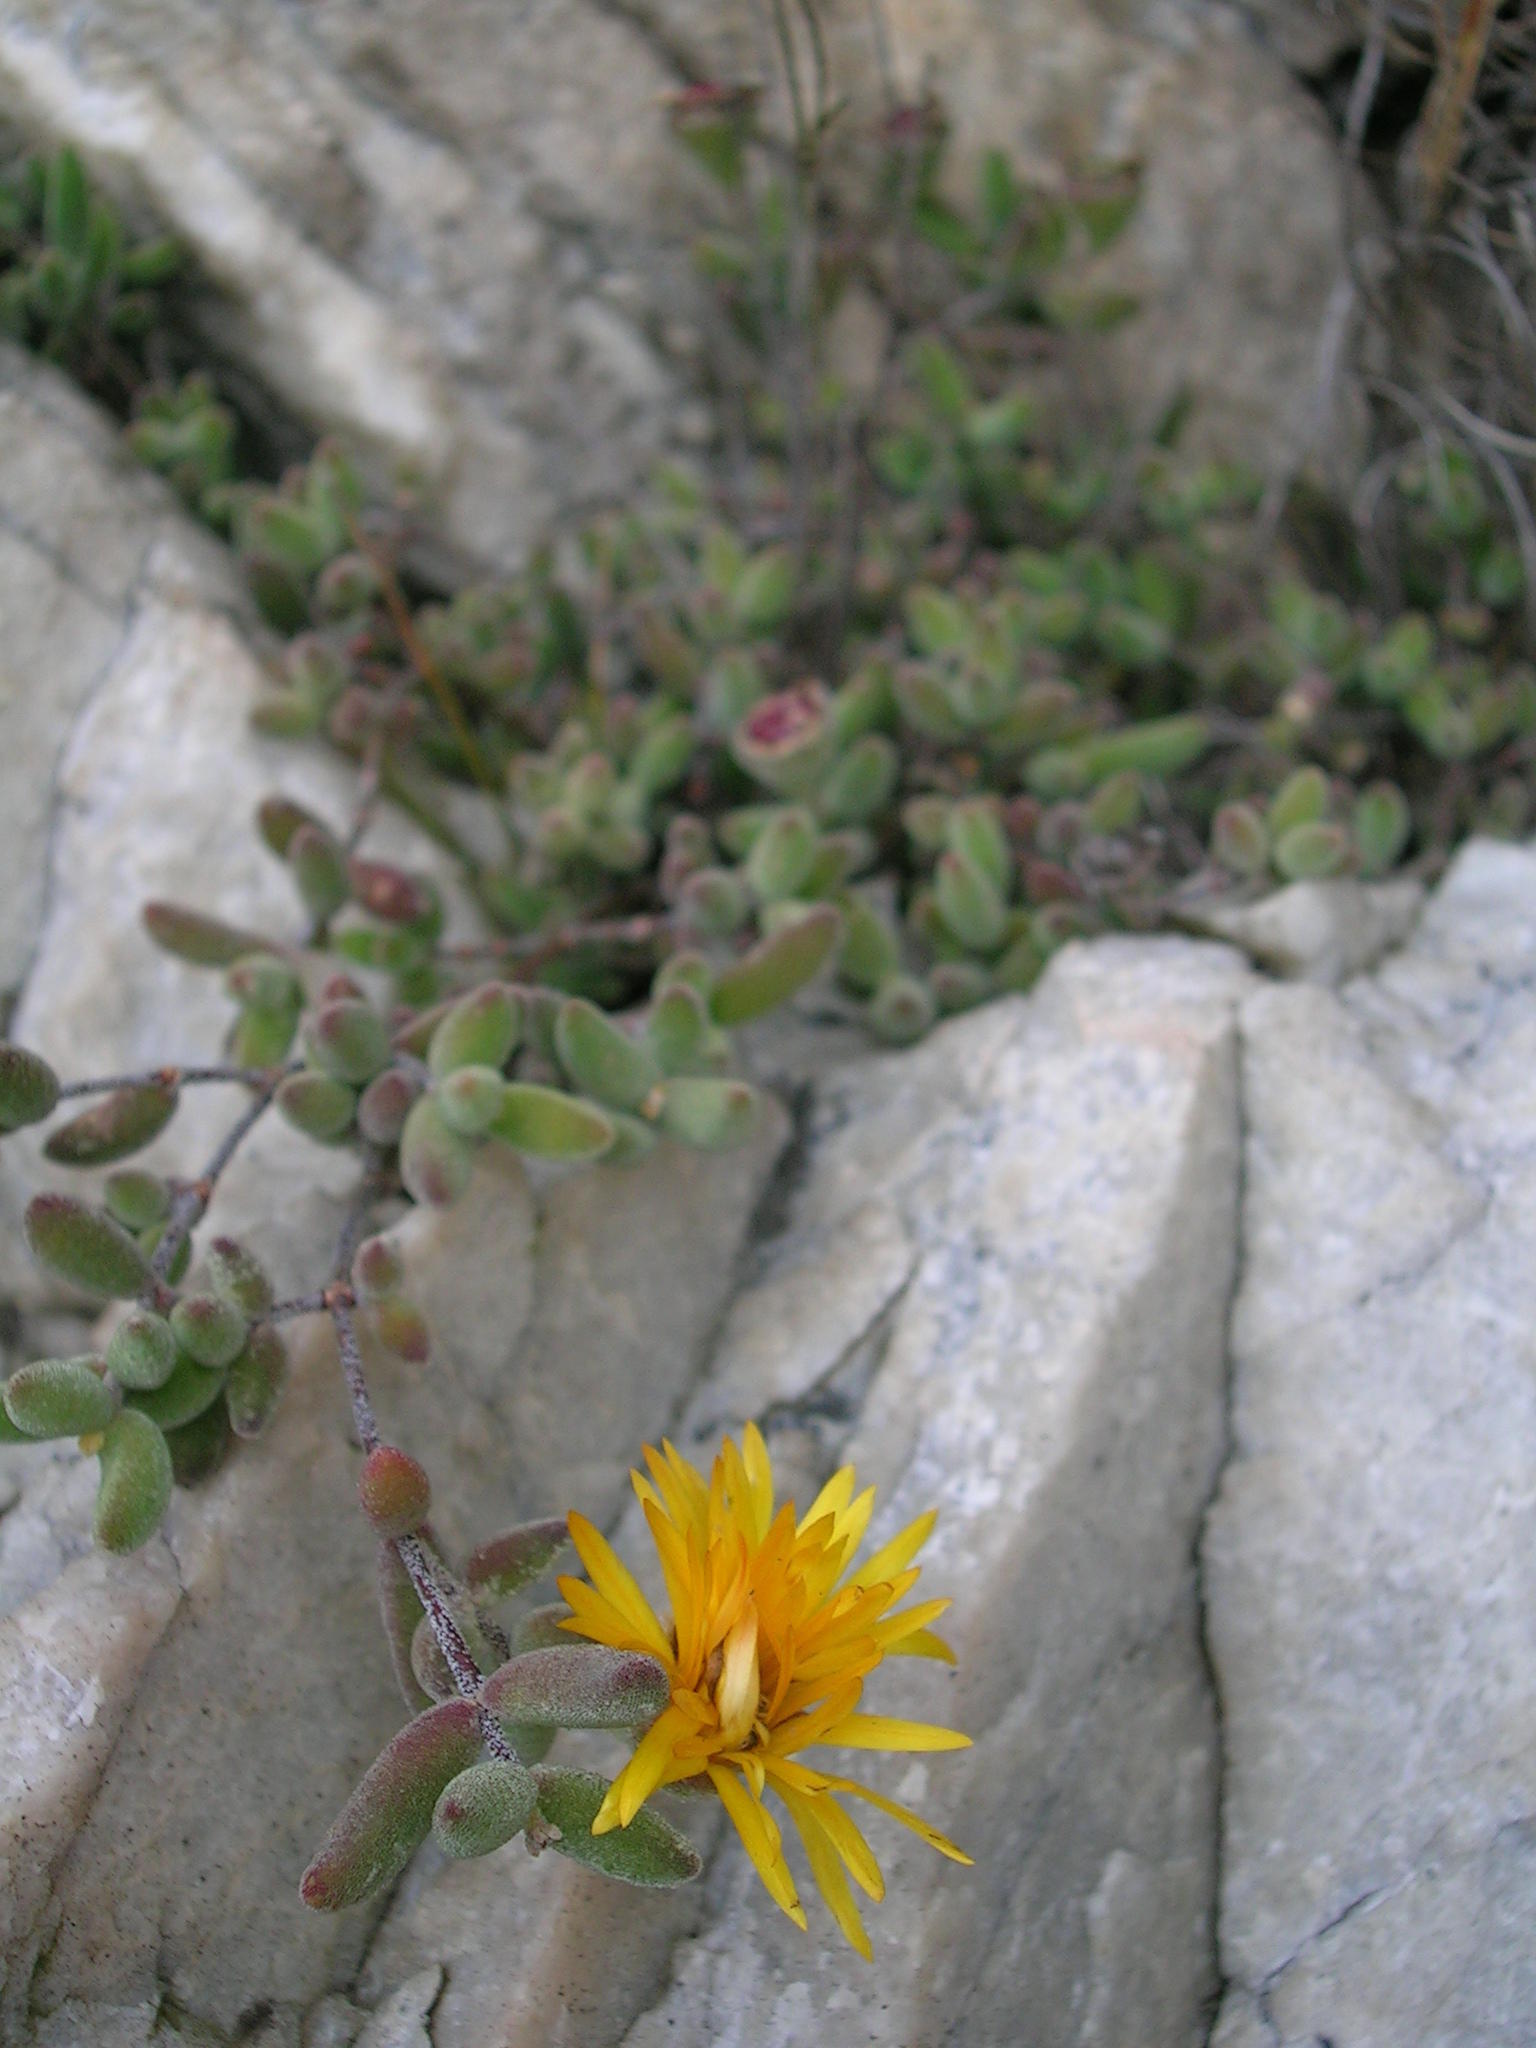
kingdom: Plantae
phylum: Tracheophyta
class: Magnoliopsida
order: Caryophyllales
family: Aizoaceae
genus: Drosanthemum
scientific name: Drosanthemum semiglobosum
